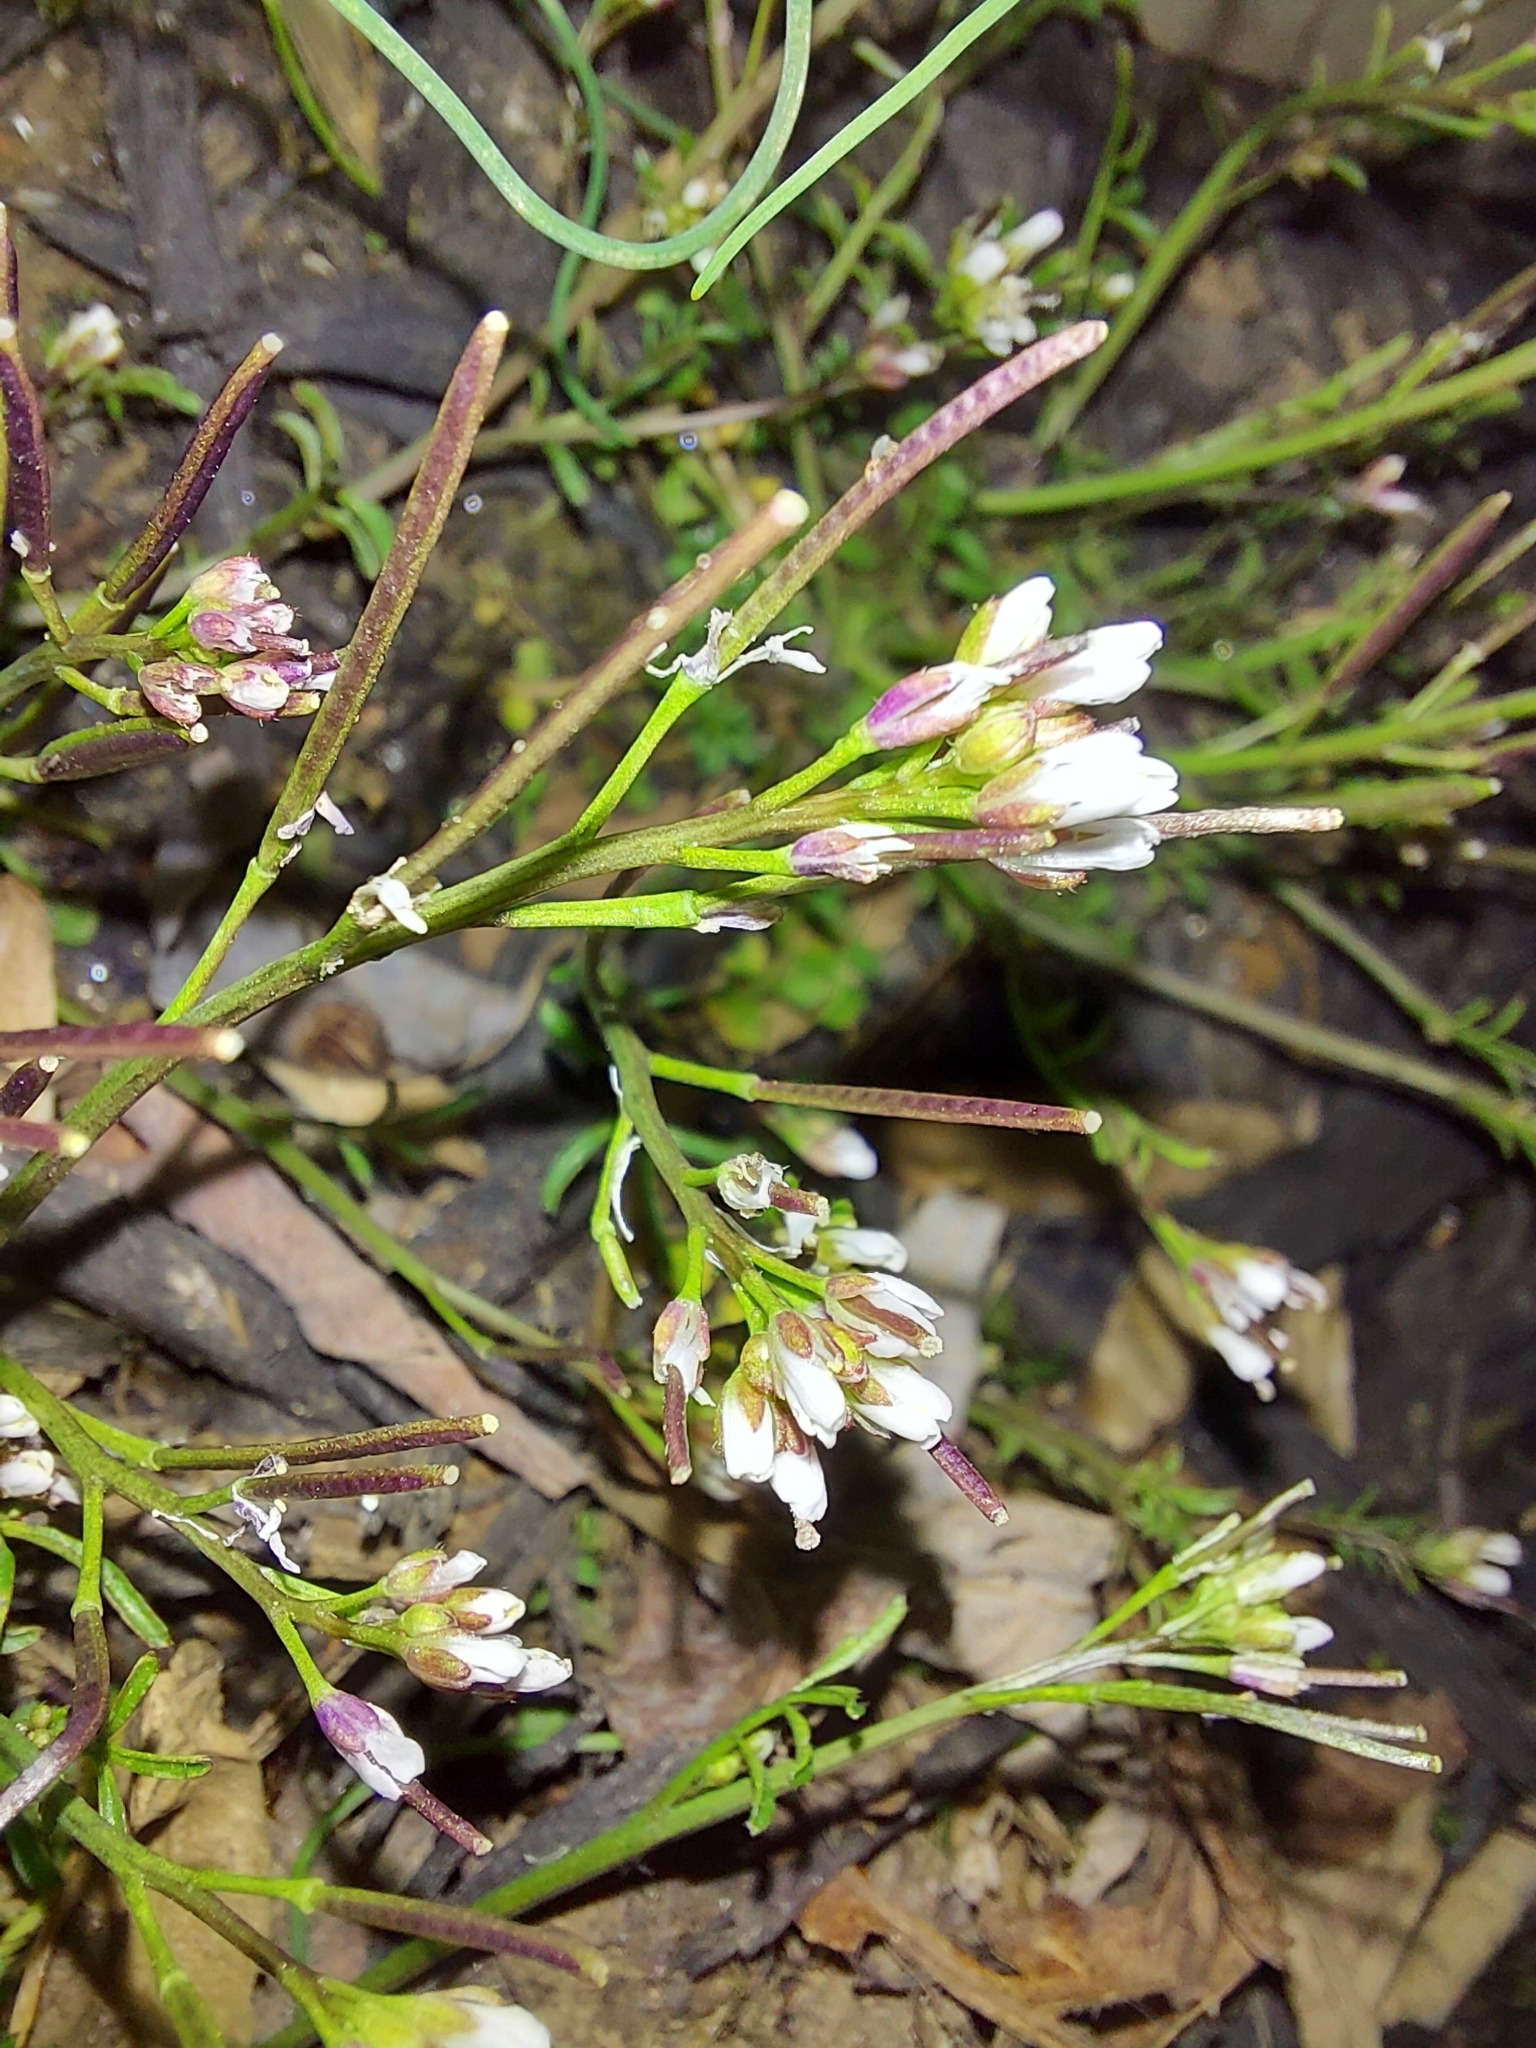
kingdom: Plantae
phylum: Tracheophyta
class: Magnoliopsida
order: Brassicales
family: Brassicaceae
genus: Cardamine
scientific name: Cardamine hirsuta
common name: Hairy bittercress
